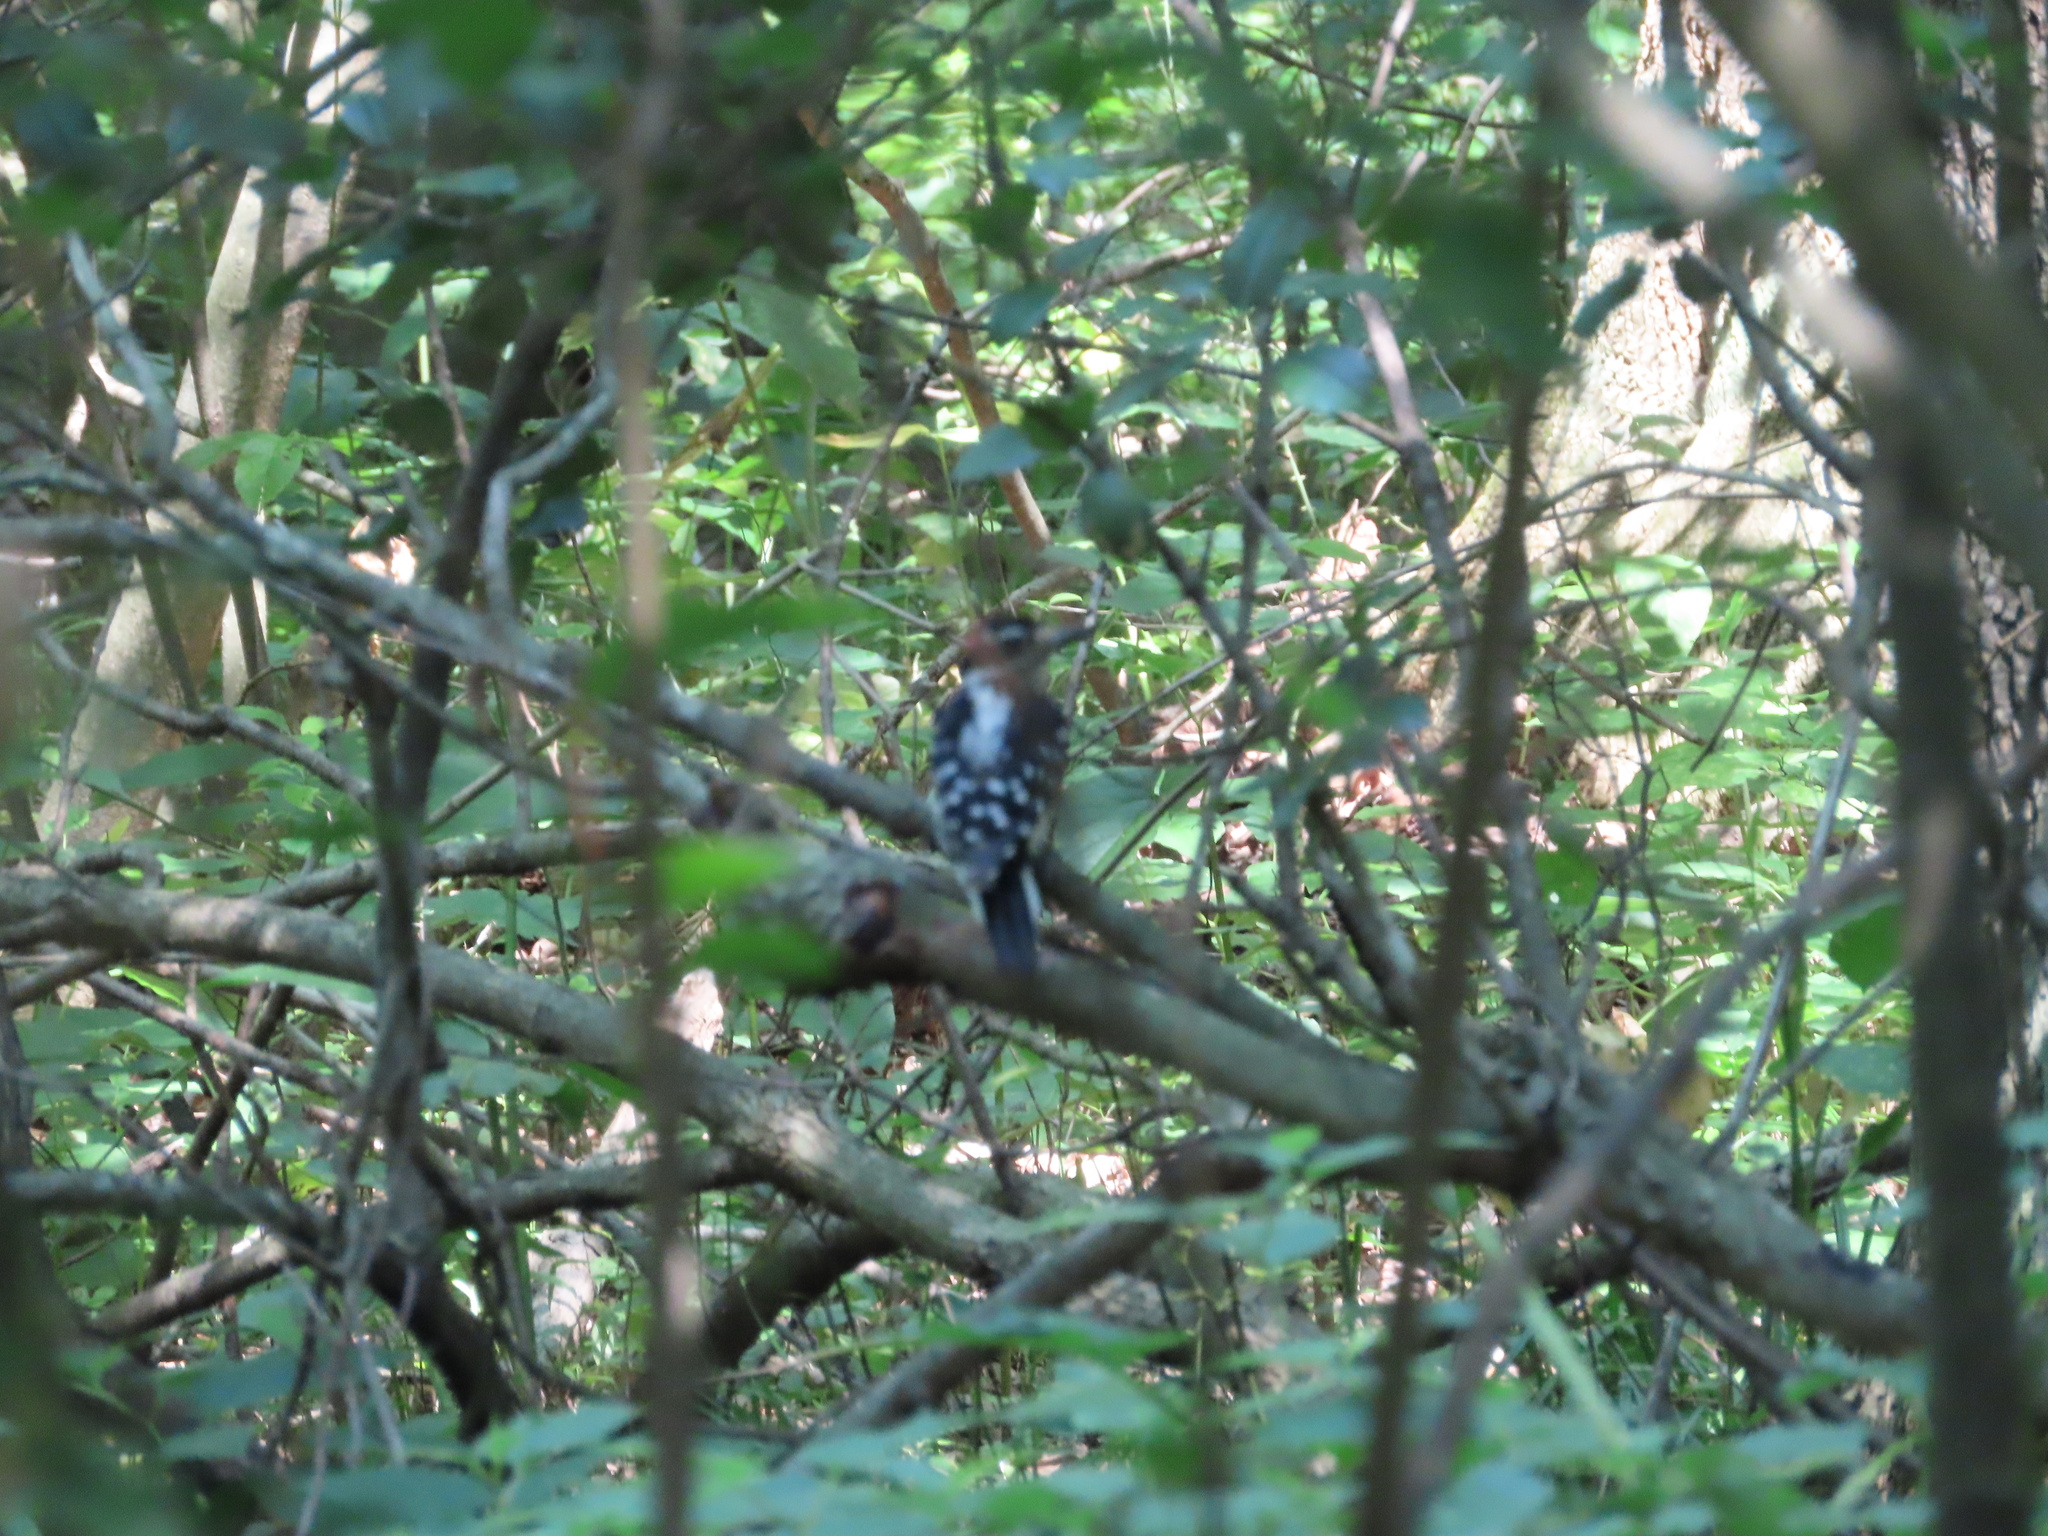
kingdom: Animalia
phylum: Chordata
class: Aves
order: Piciformes
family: Picidae
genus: Leuconotopicus
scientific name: Leuconotopicus villosus
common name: Hairy woodpecker
